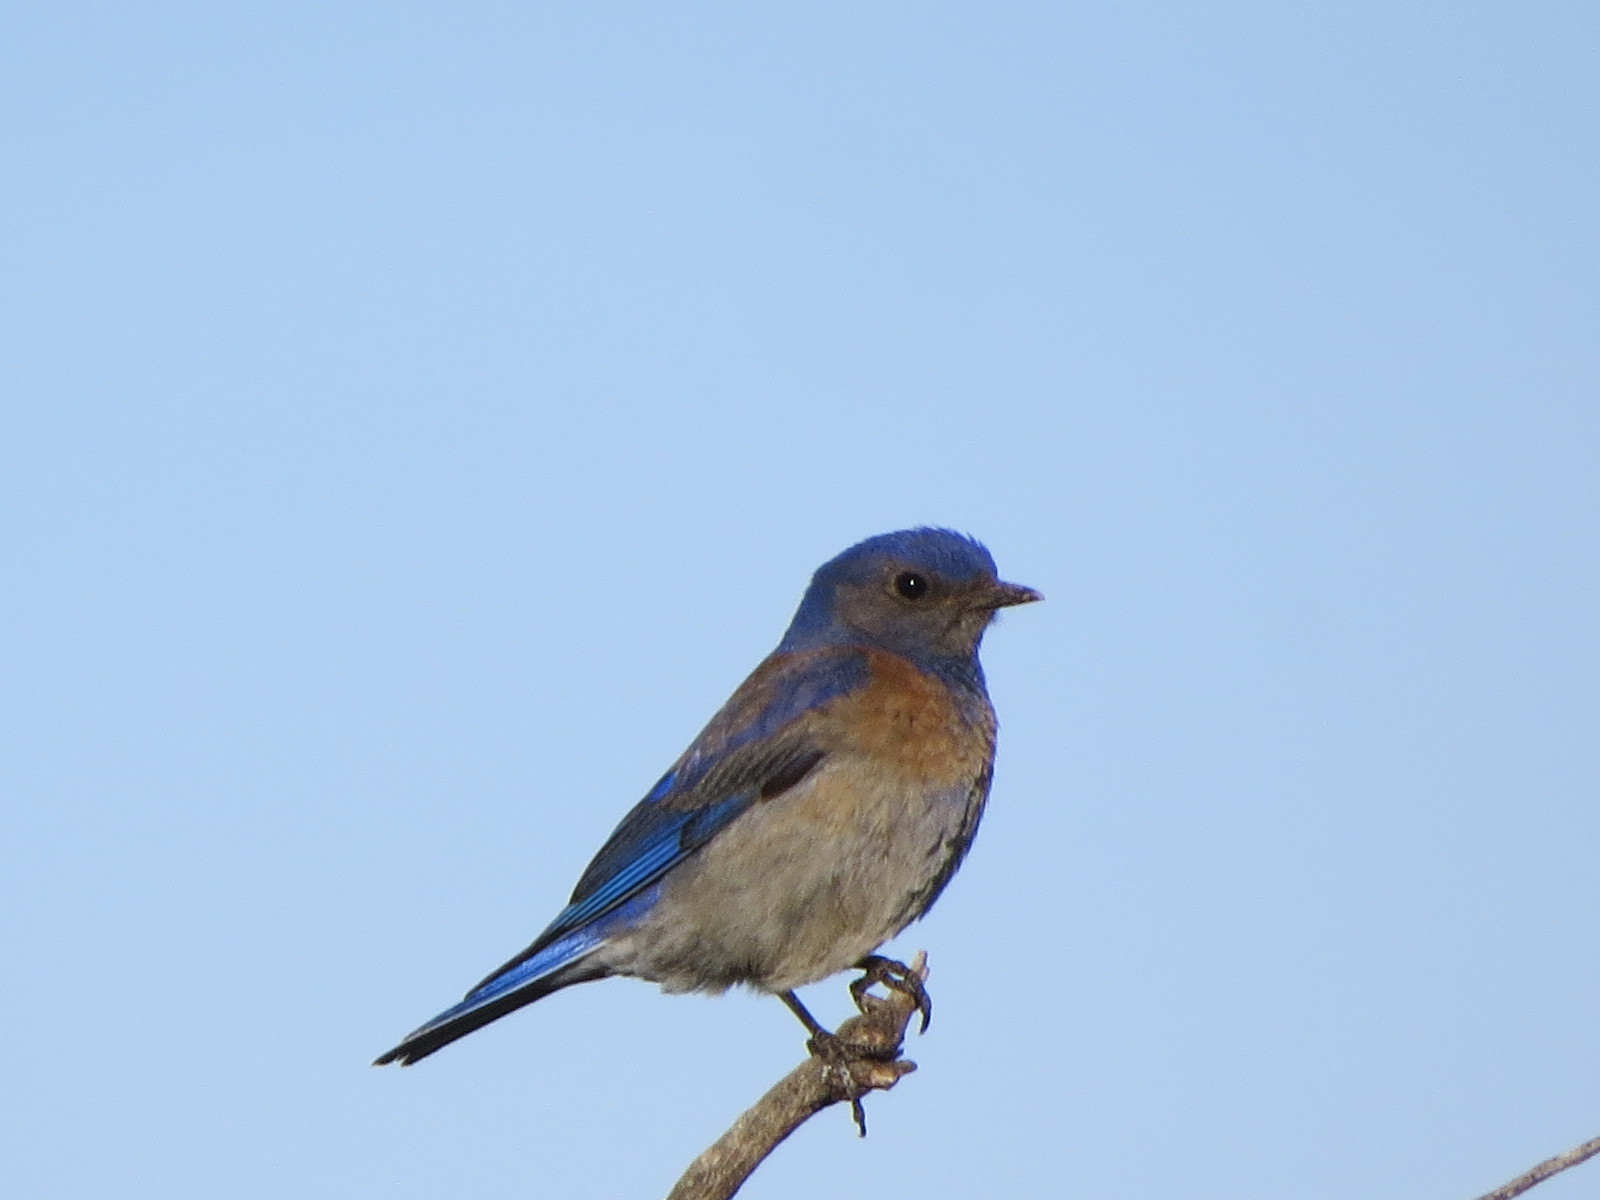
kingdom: Animalia
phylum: Chordata
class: Aves
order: Passeriformes
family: Turdidae
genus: Sialia
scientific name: Sialia mexicana
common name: Western bluebird
